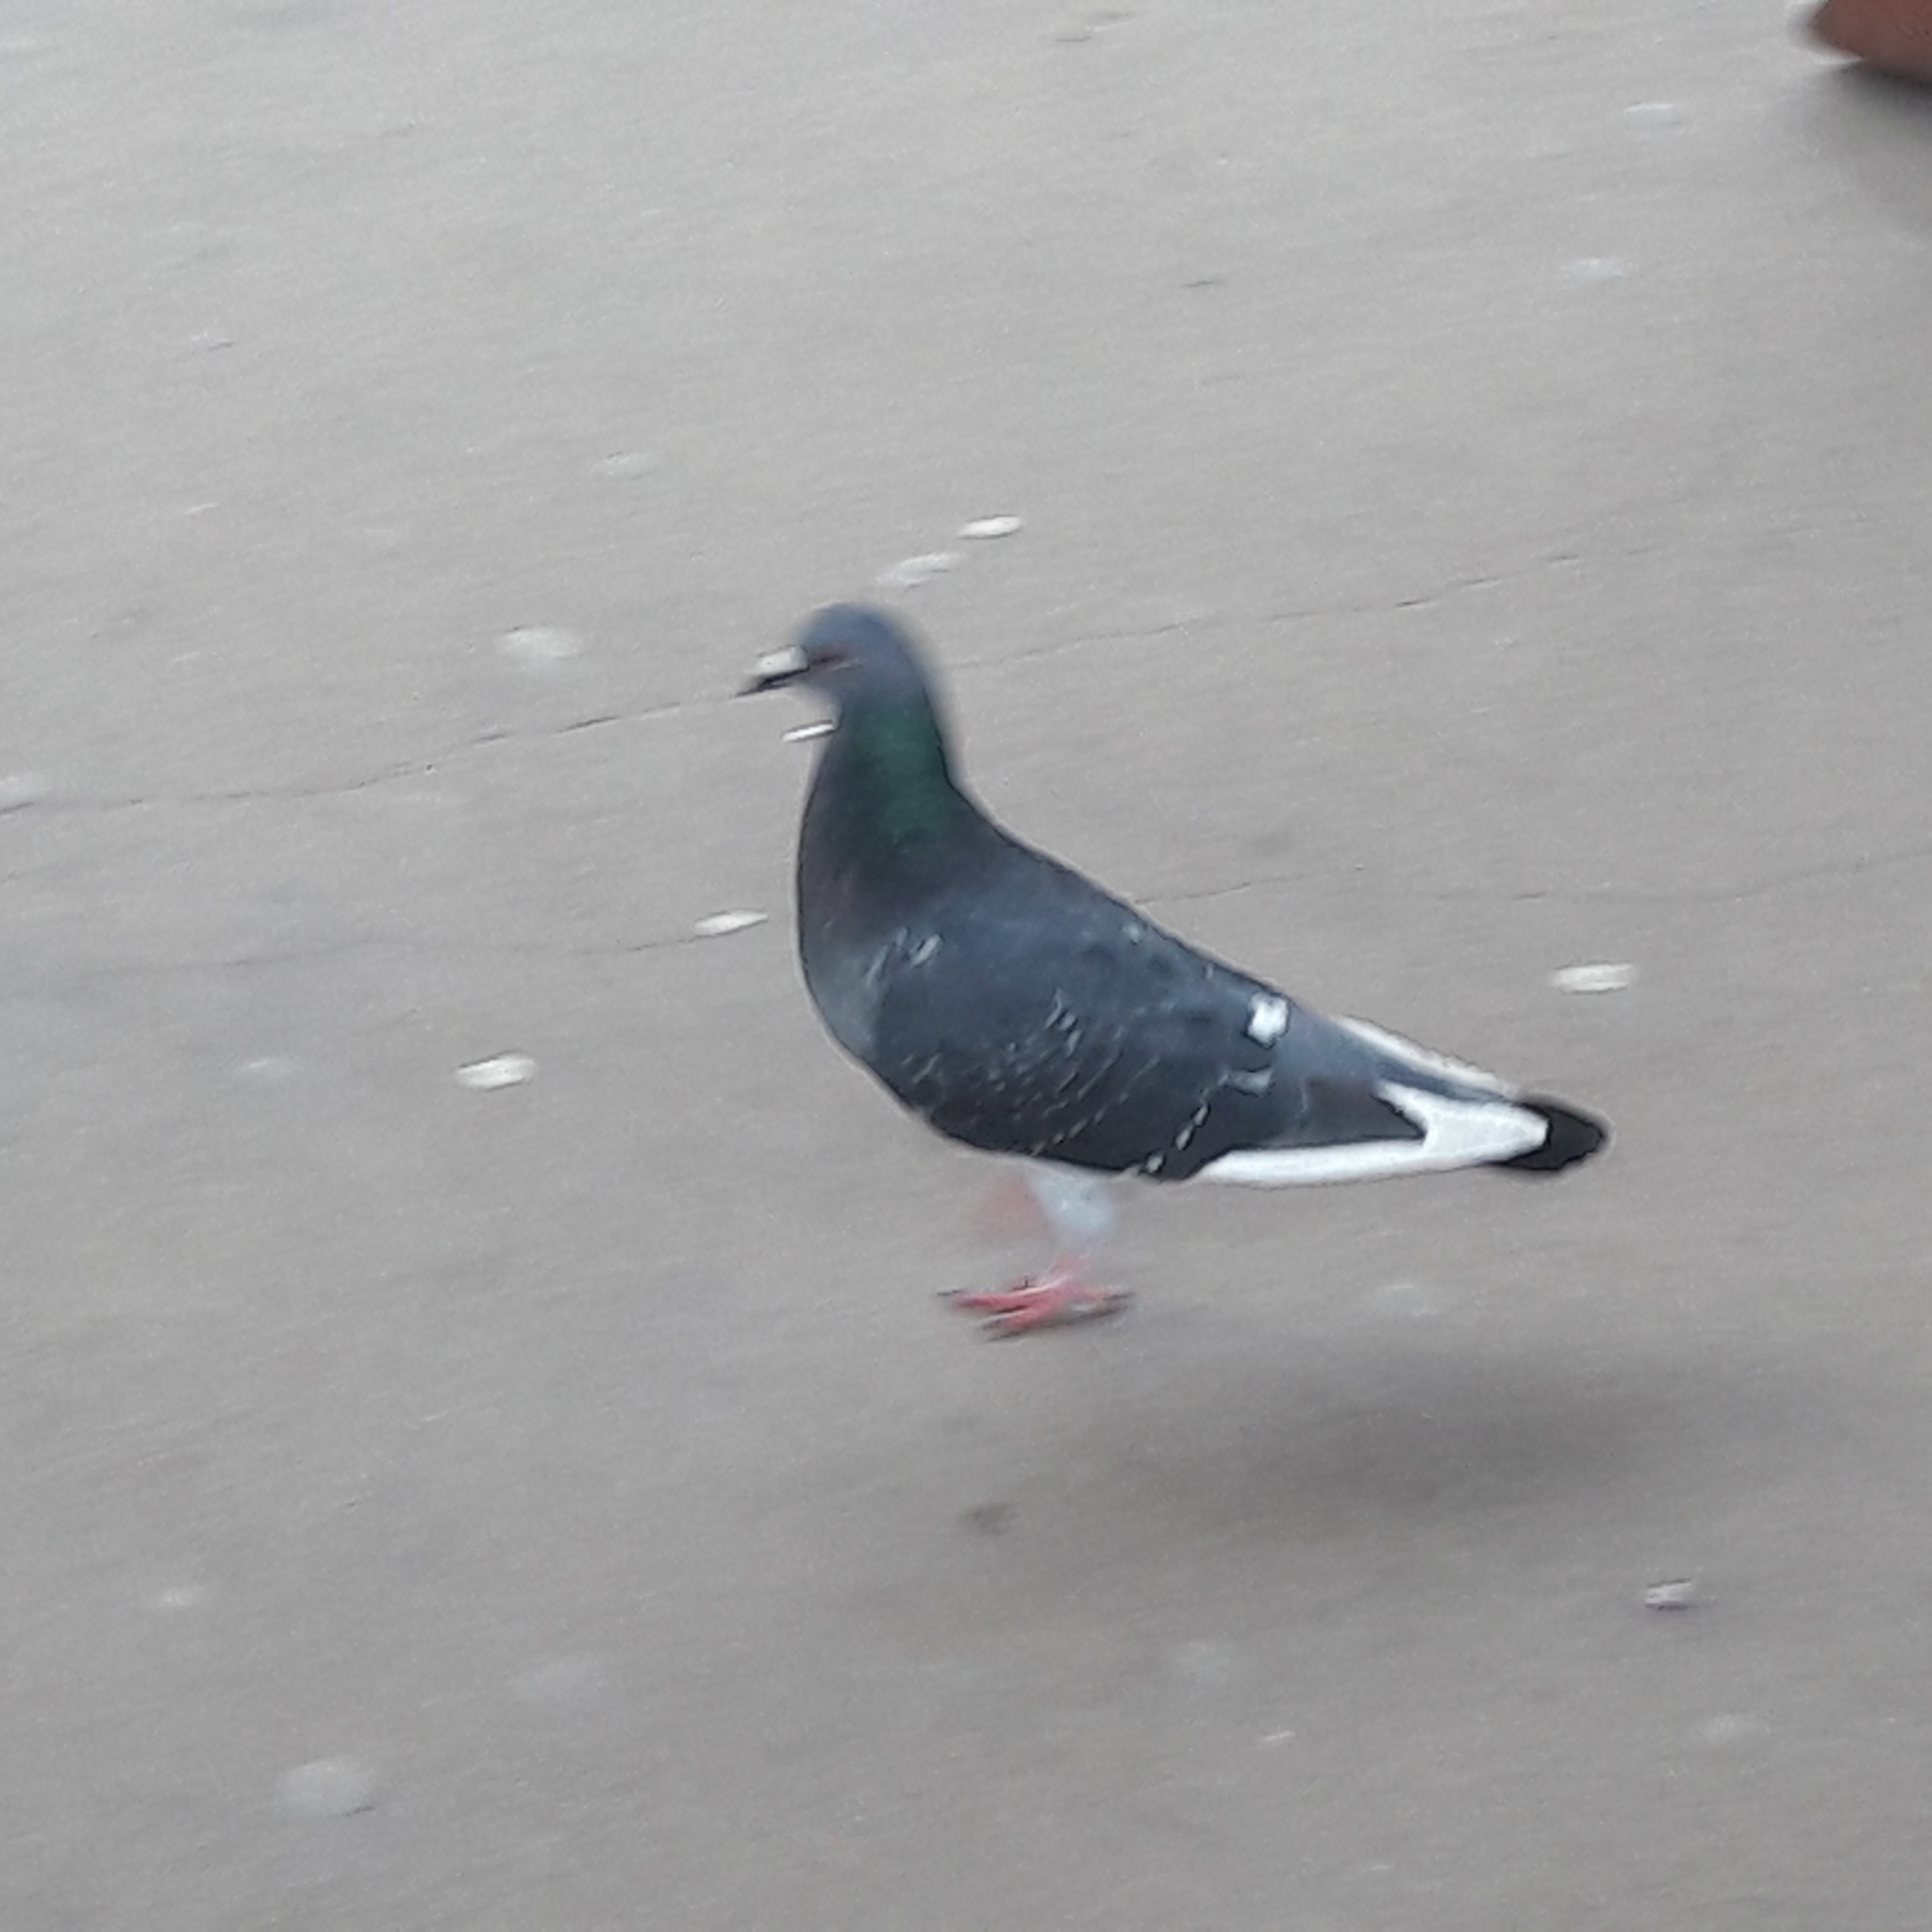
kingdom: Animalia
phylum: Chordata
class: Aves
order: Columbiformes
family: Columbidae
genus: Columba
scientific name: Columba livia
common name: Rock pigeon
